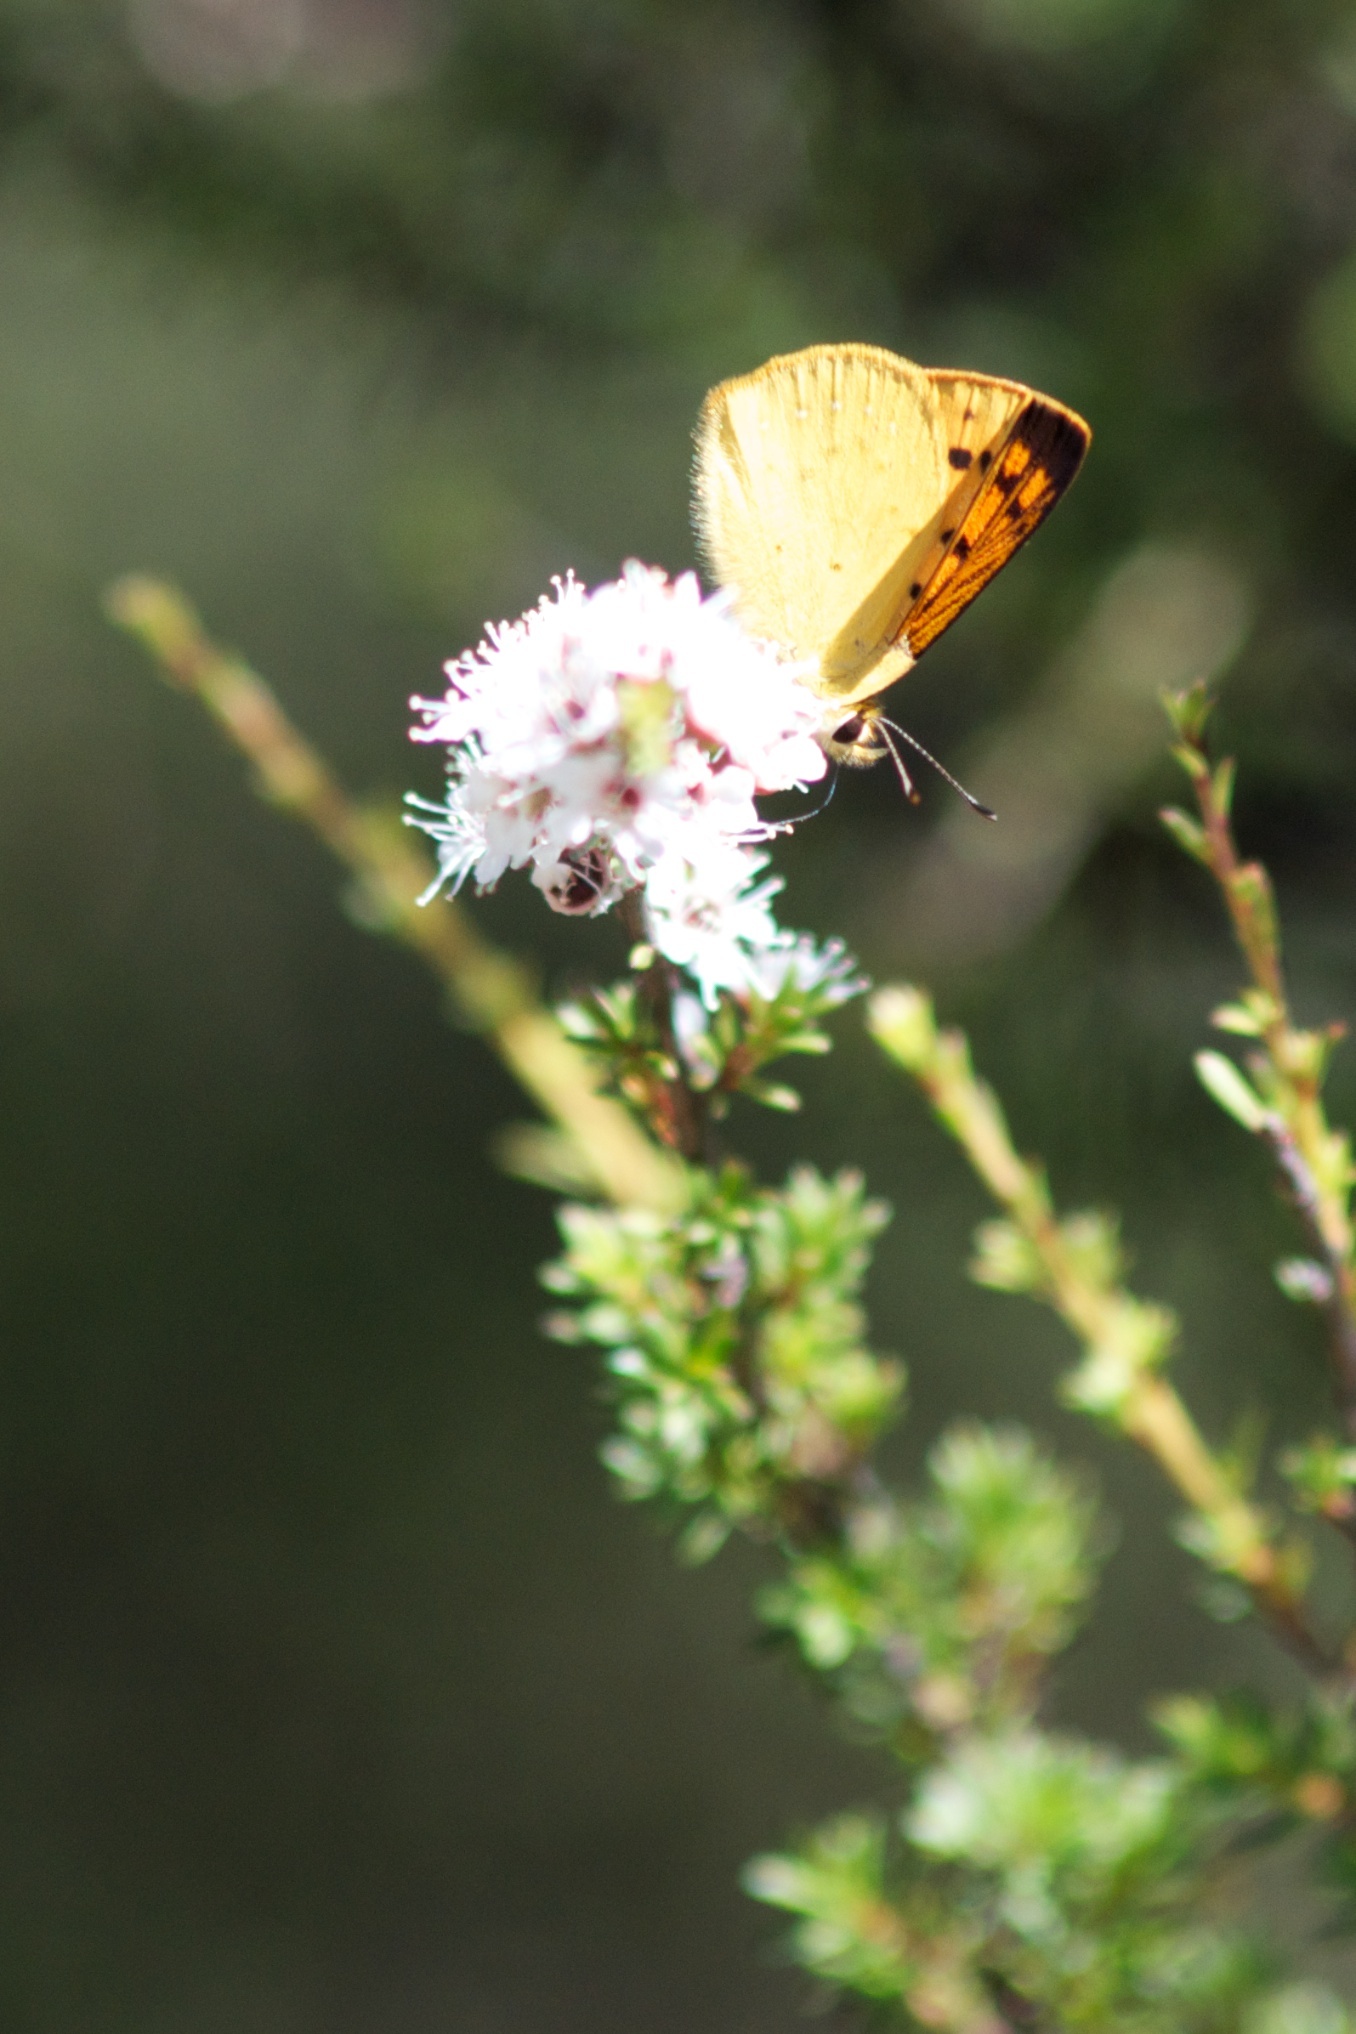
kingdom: Animalia
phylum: Arthropoda
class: Insecta
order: Lepidoptera
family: Lycaenidae
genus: Lycaena
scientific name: Lycaena salustius
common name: North island coastal copper
